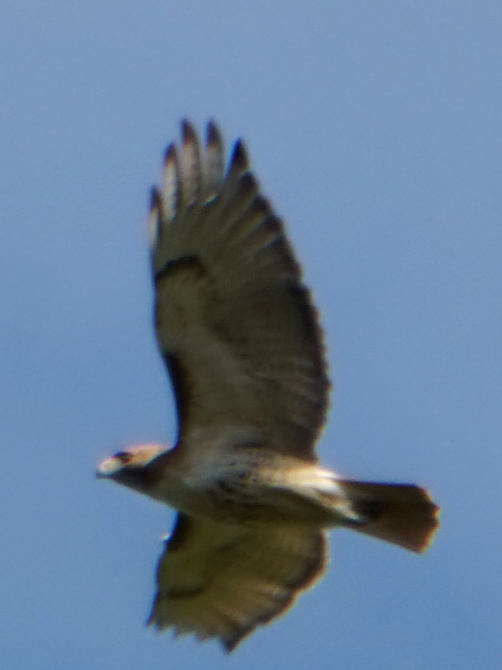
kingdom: Animalia
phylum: Chordata
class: Aves
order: Accipitriformes
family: Accipitridae
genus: Buteo
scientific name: Buteo jamaicensis
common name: Red-tailed hawk
